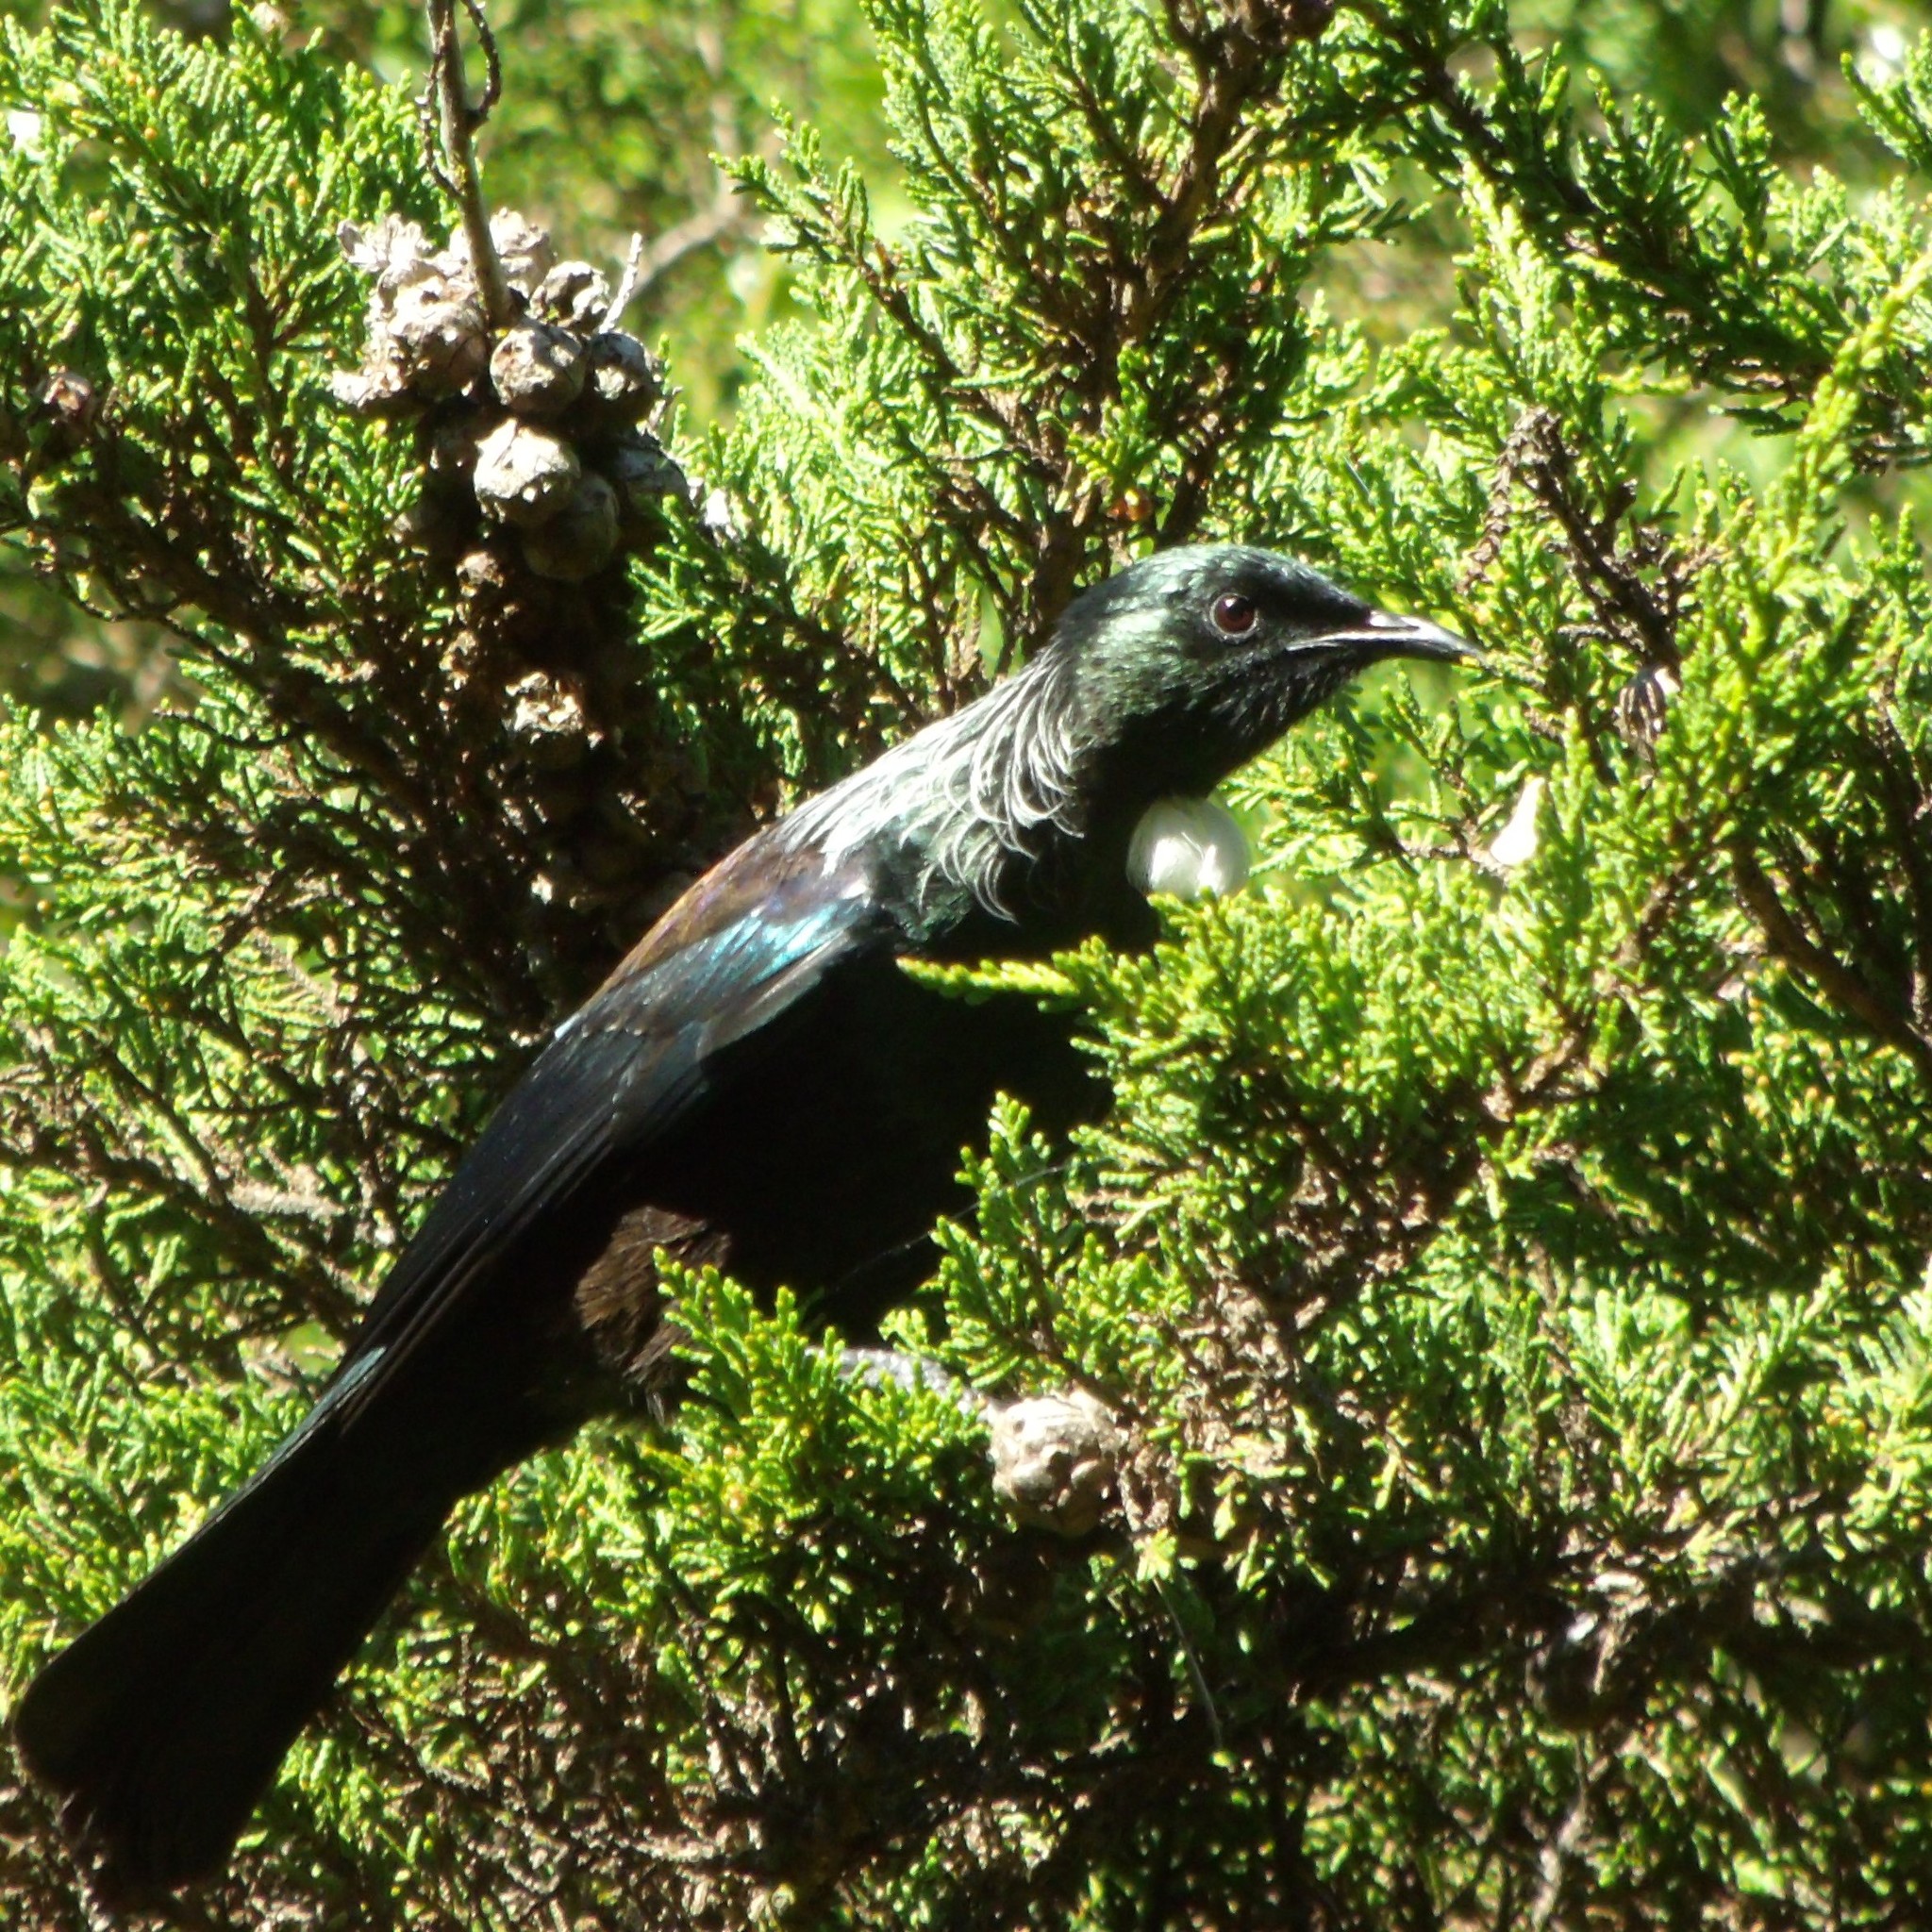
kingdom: Animalia
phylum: Chordata
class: Aves
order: Passeriformes
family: Meliphagidae
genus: Prosthemadera
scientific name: Prosthemadera novaeseelandiae
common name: Tui
